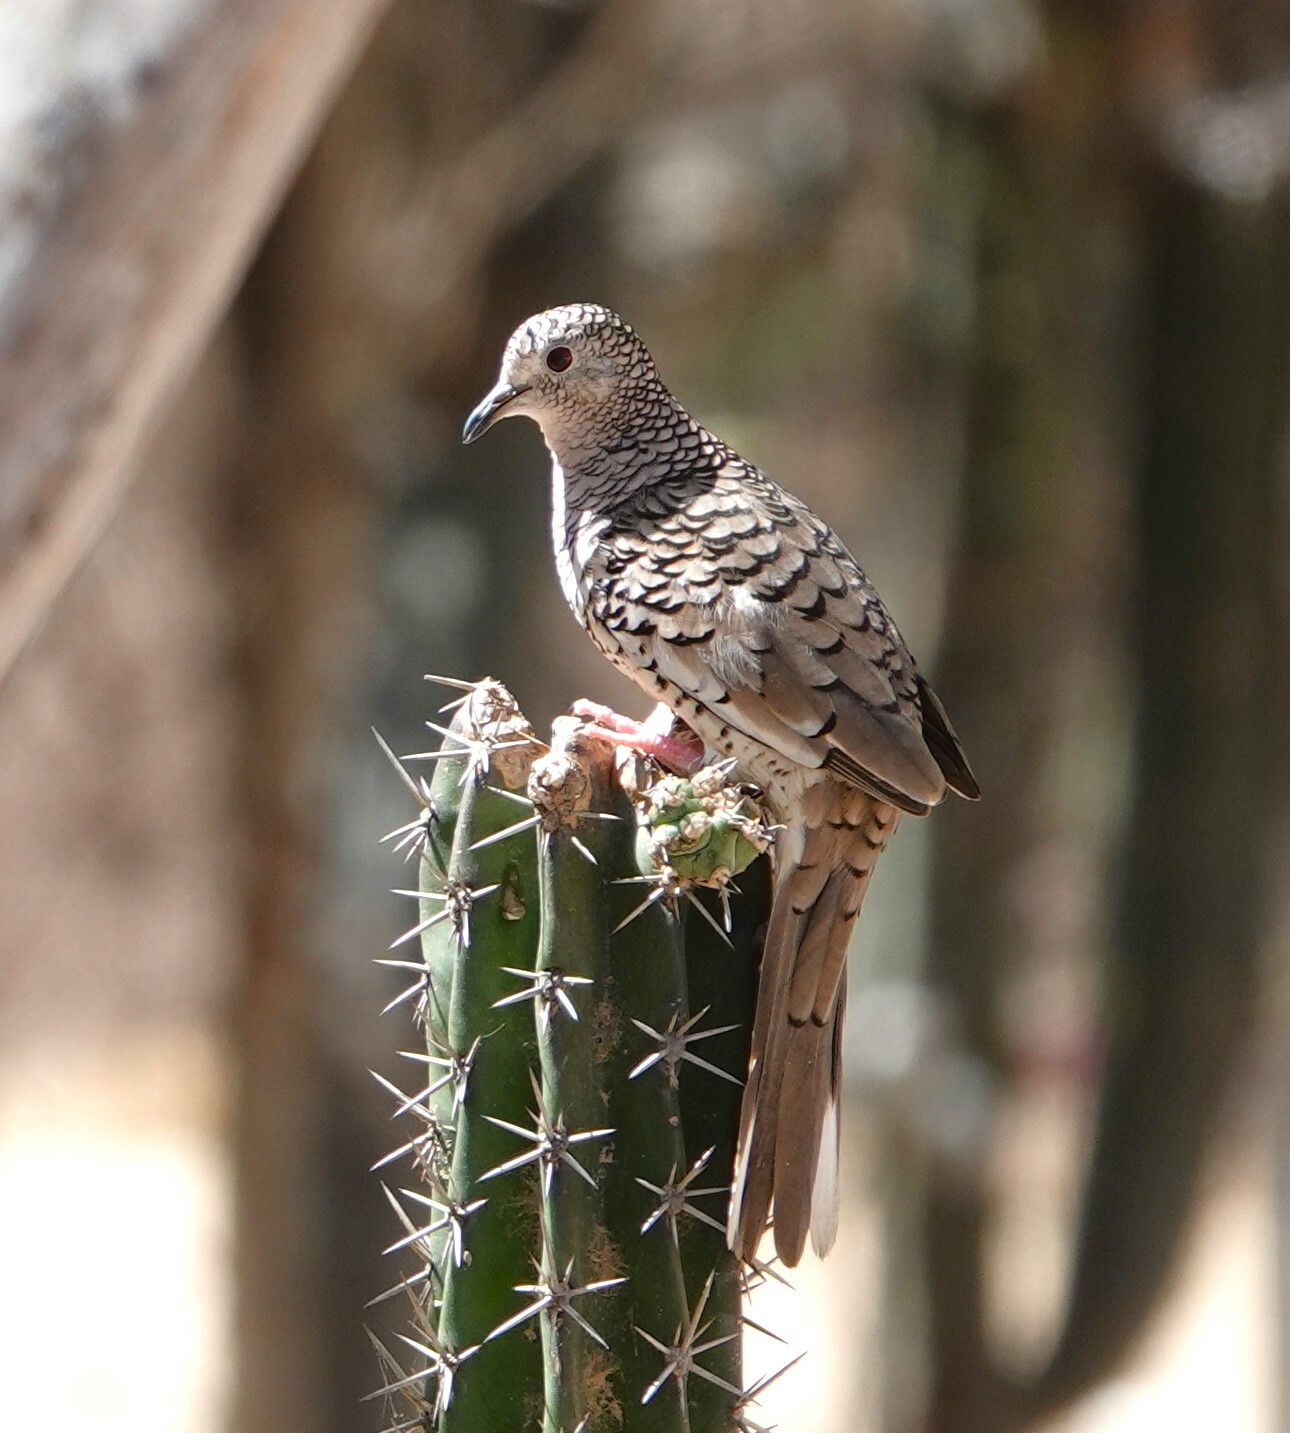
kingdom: Animalia
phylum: Chordata
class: Aves
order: Columbiformes
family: Columbidae
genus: Columbina
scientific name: Columbina squammata
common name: Scaled dove
